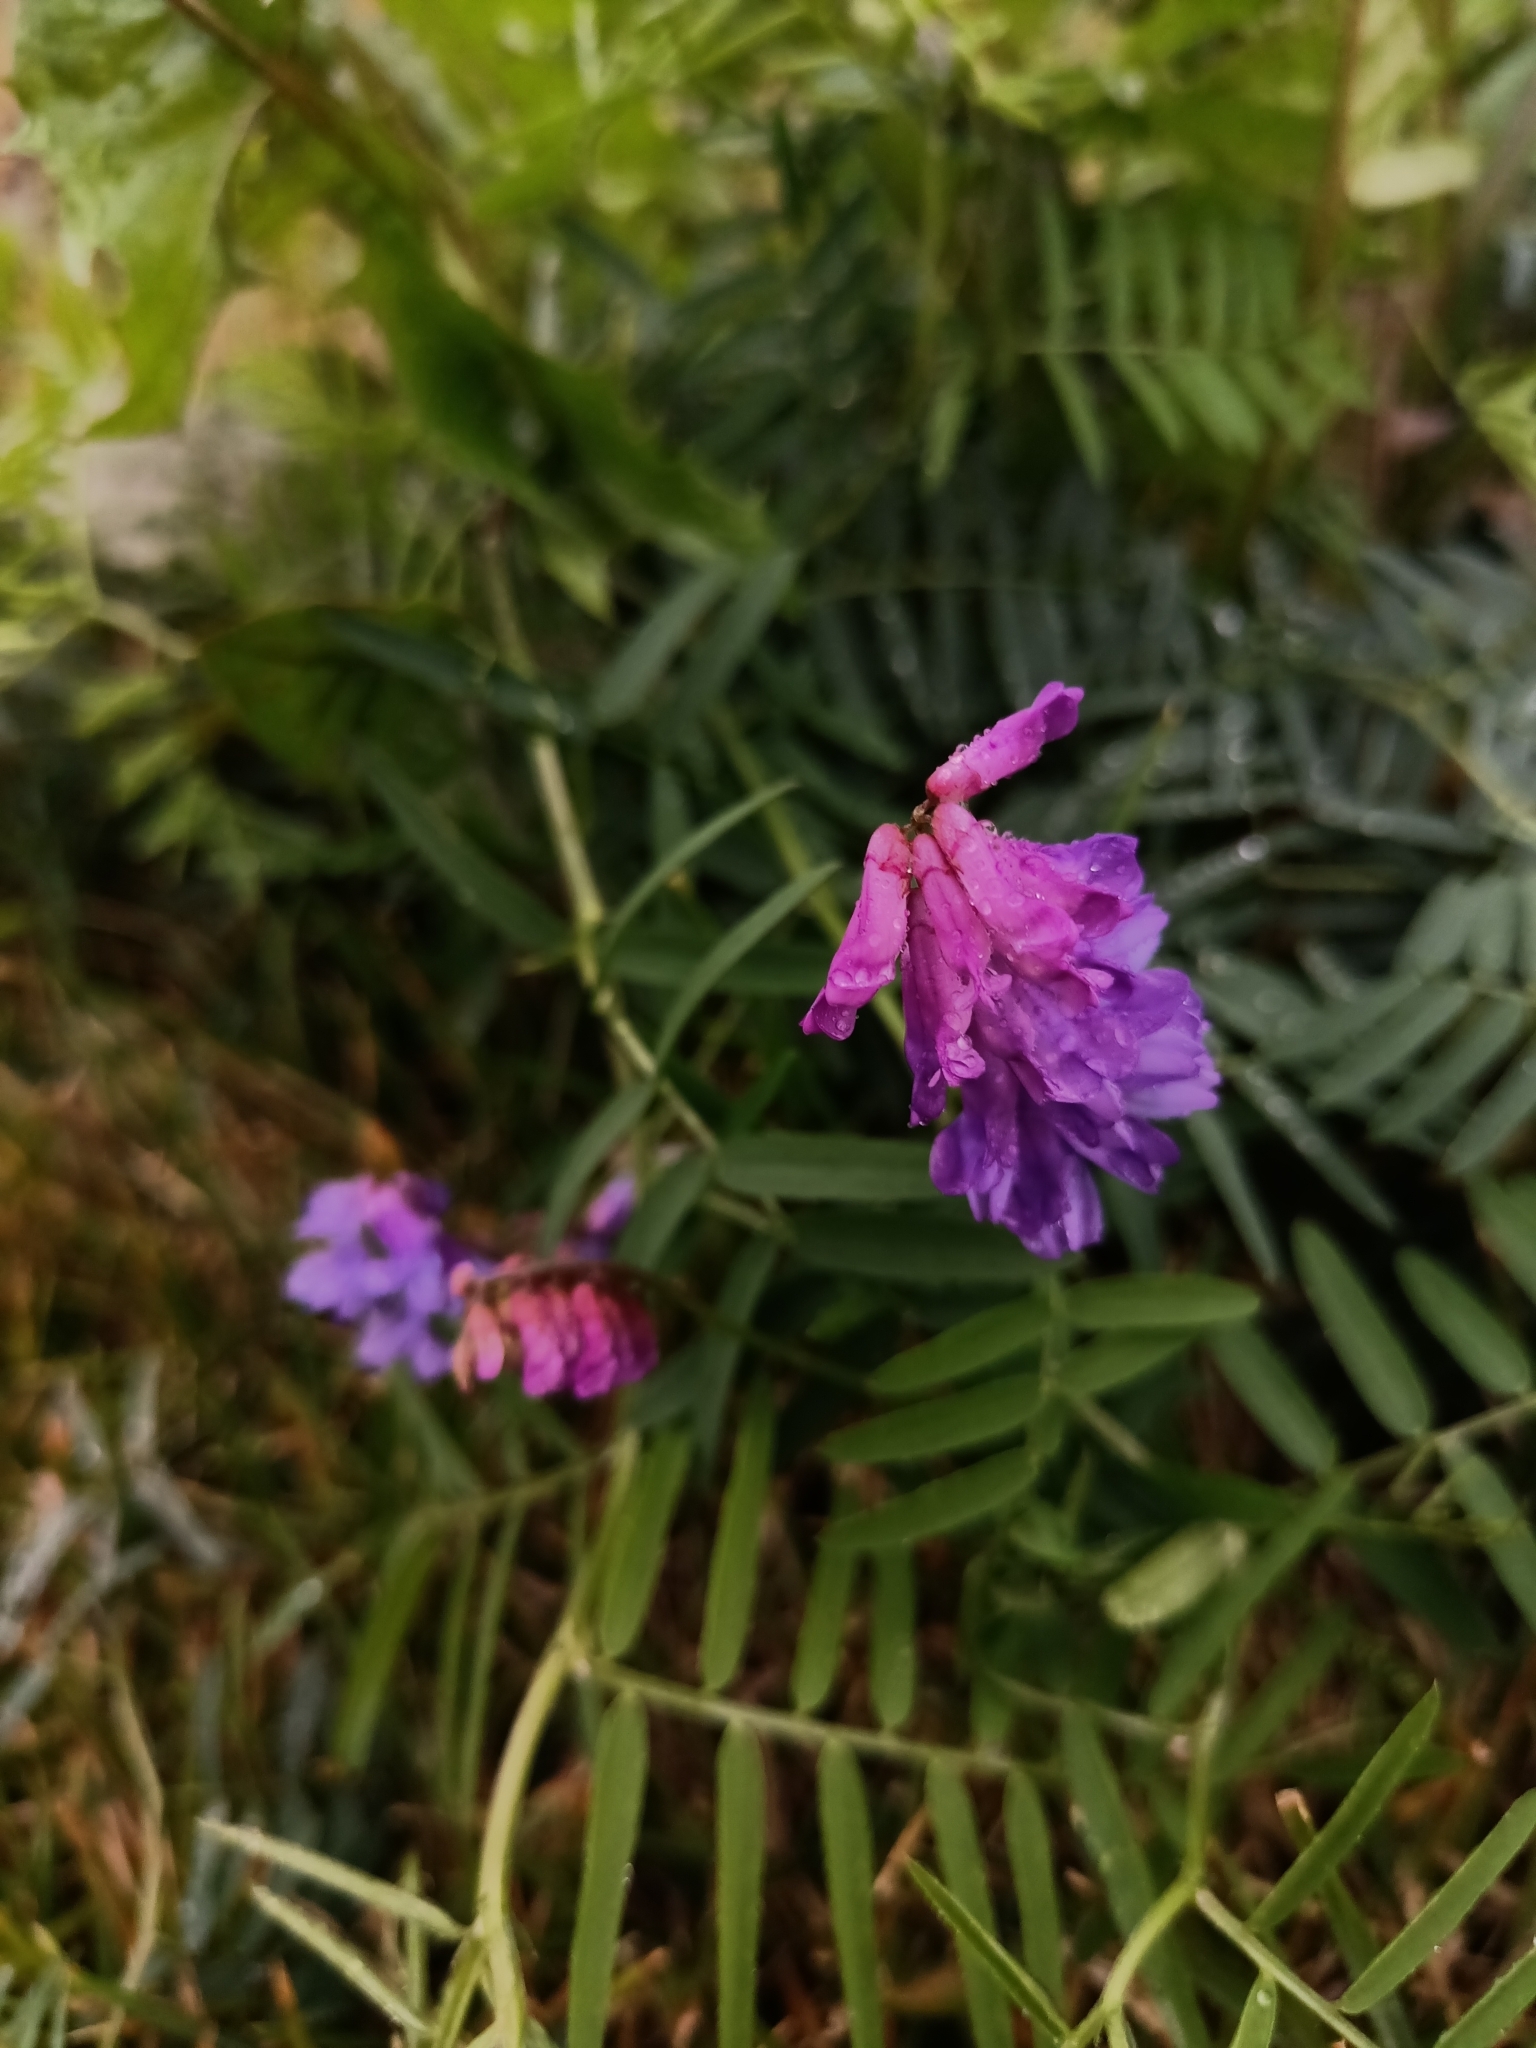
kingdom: Plantae
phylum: Tracheophyta
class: Magnoliopsida
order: Fabales
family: Fabaceae
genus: Vicia
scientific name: Vicia cracca
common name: Bird vetch
